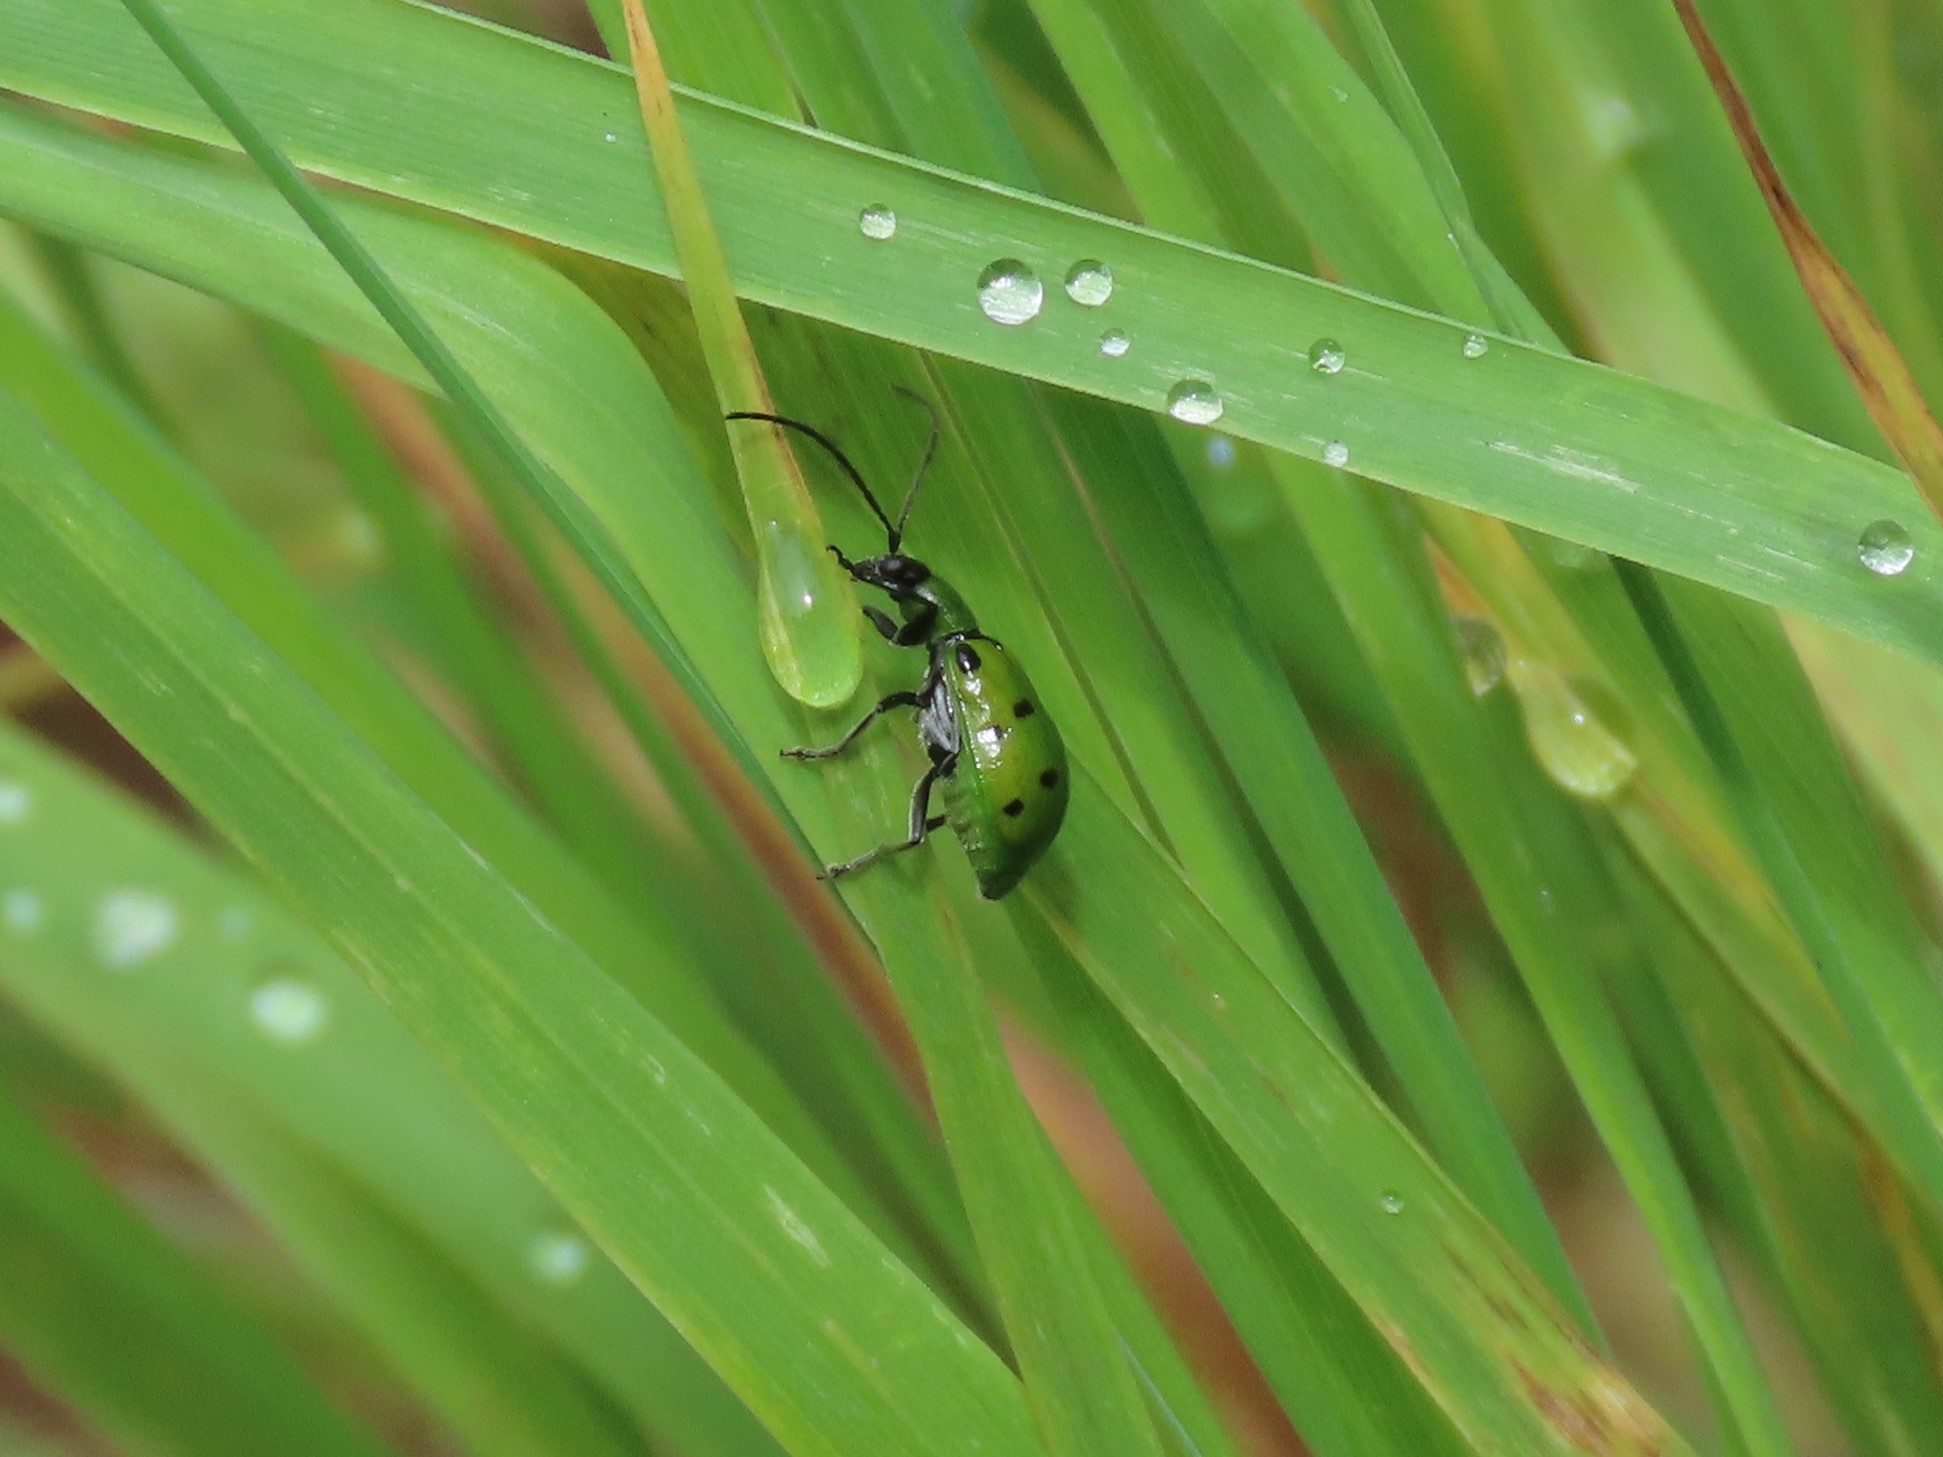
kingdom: Animalia
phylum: Arthropoda
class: Insecta
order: Coleoptera
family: Chrysomelidae
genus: Diabrotica
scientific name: Diabrotica decempunctata
